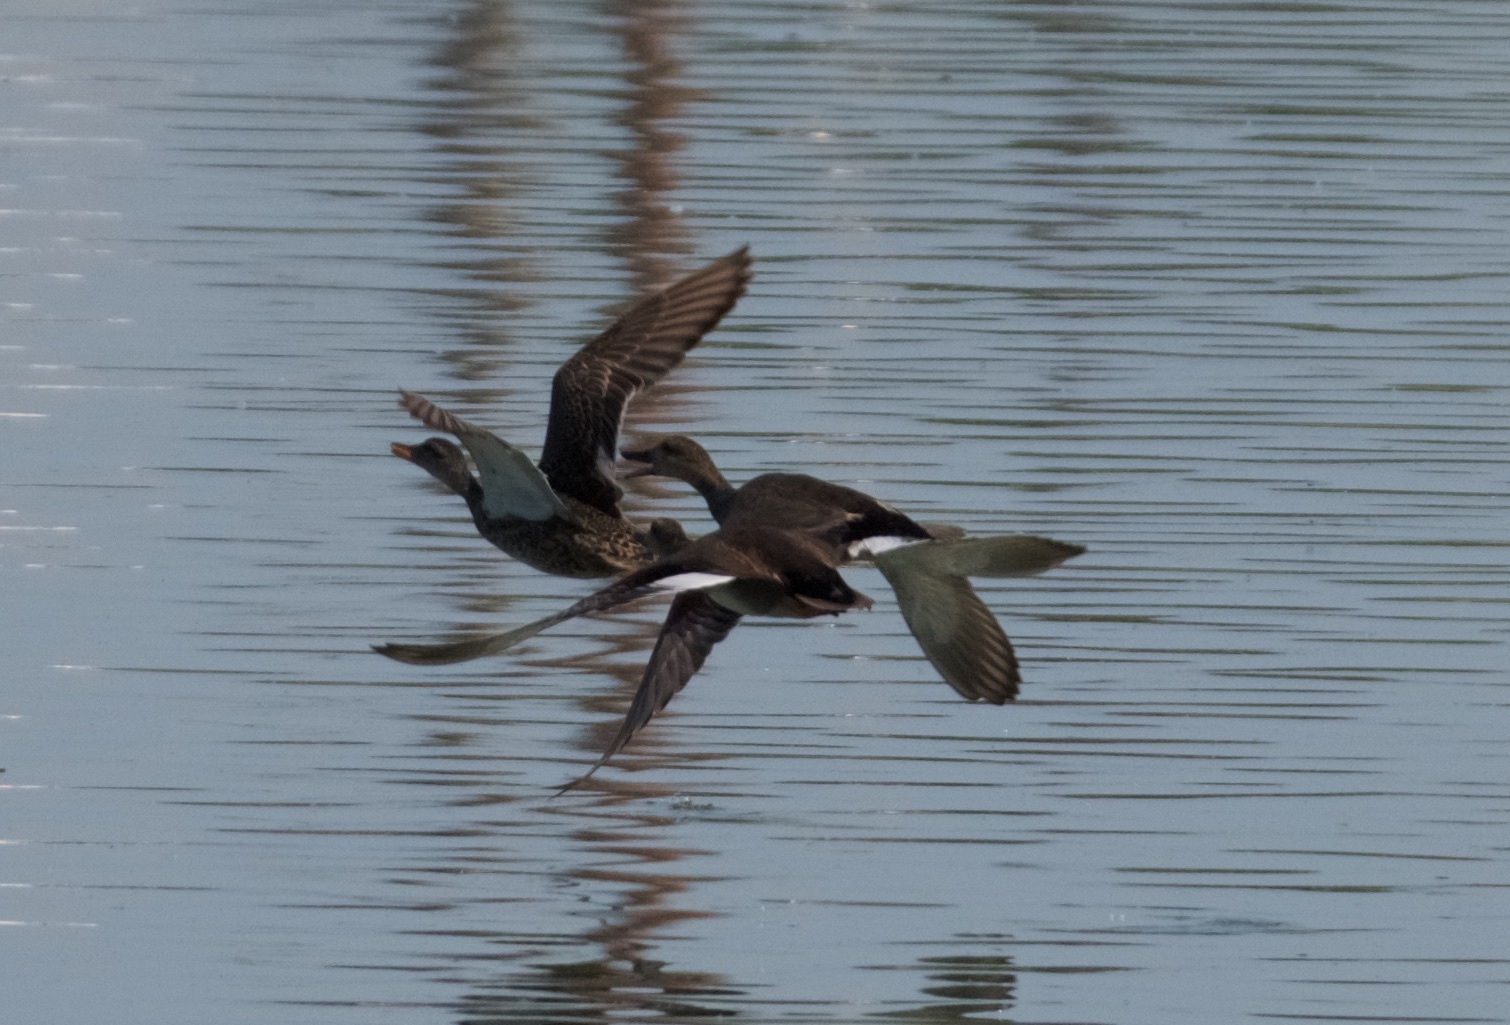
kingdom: Animalia
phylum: Chordata
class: Aves
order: Anseriformes
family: Anatidae
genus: Mareca
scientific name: Mareca strepera
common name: Gadwall
